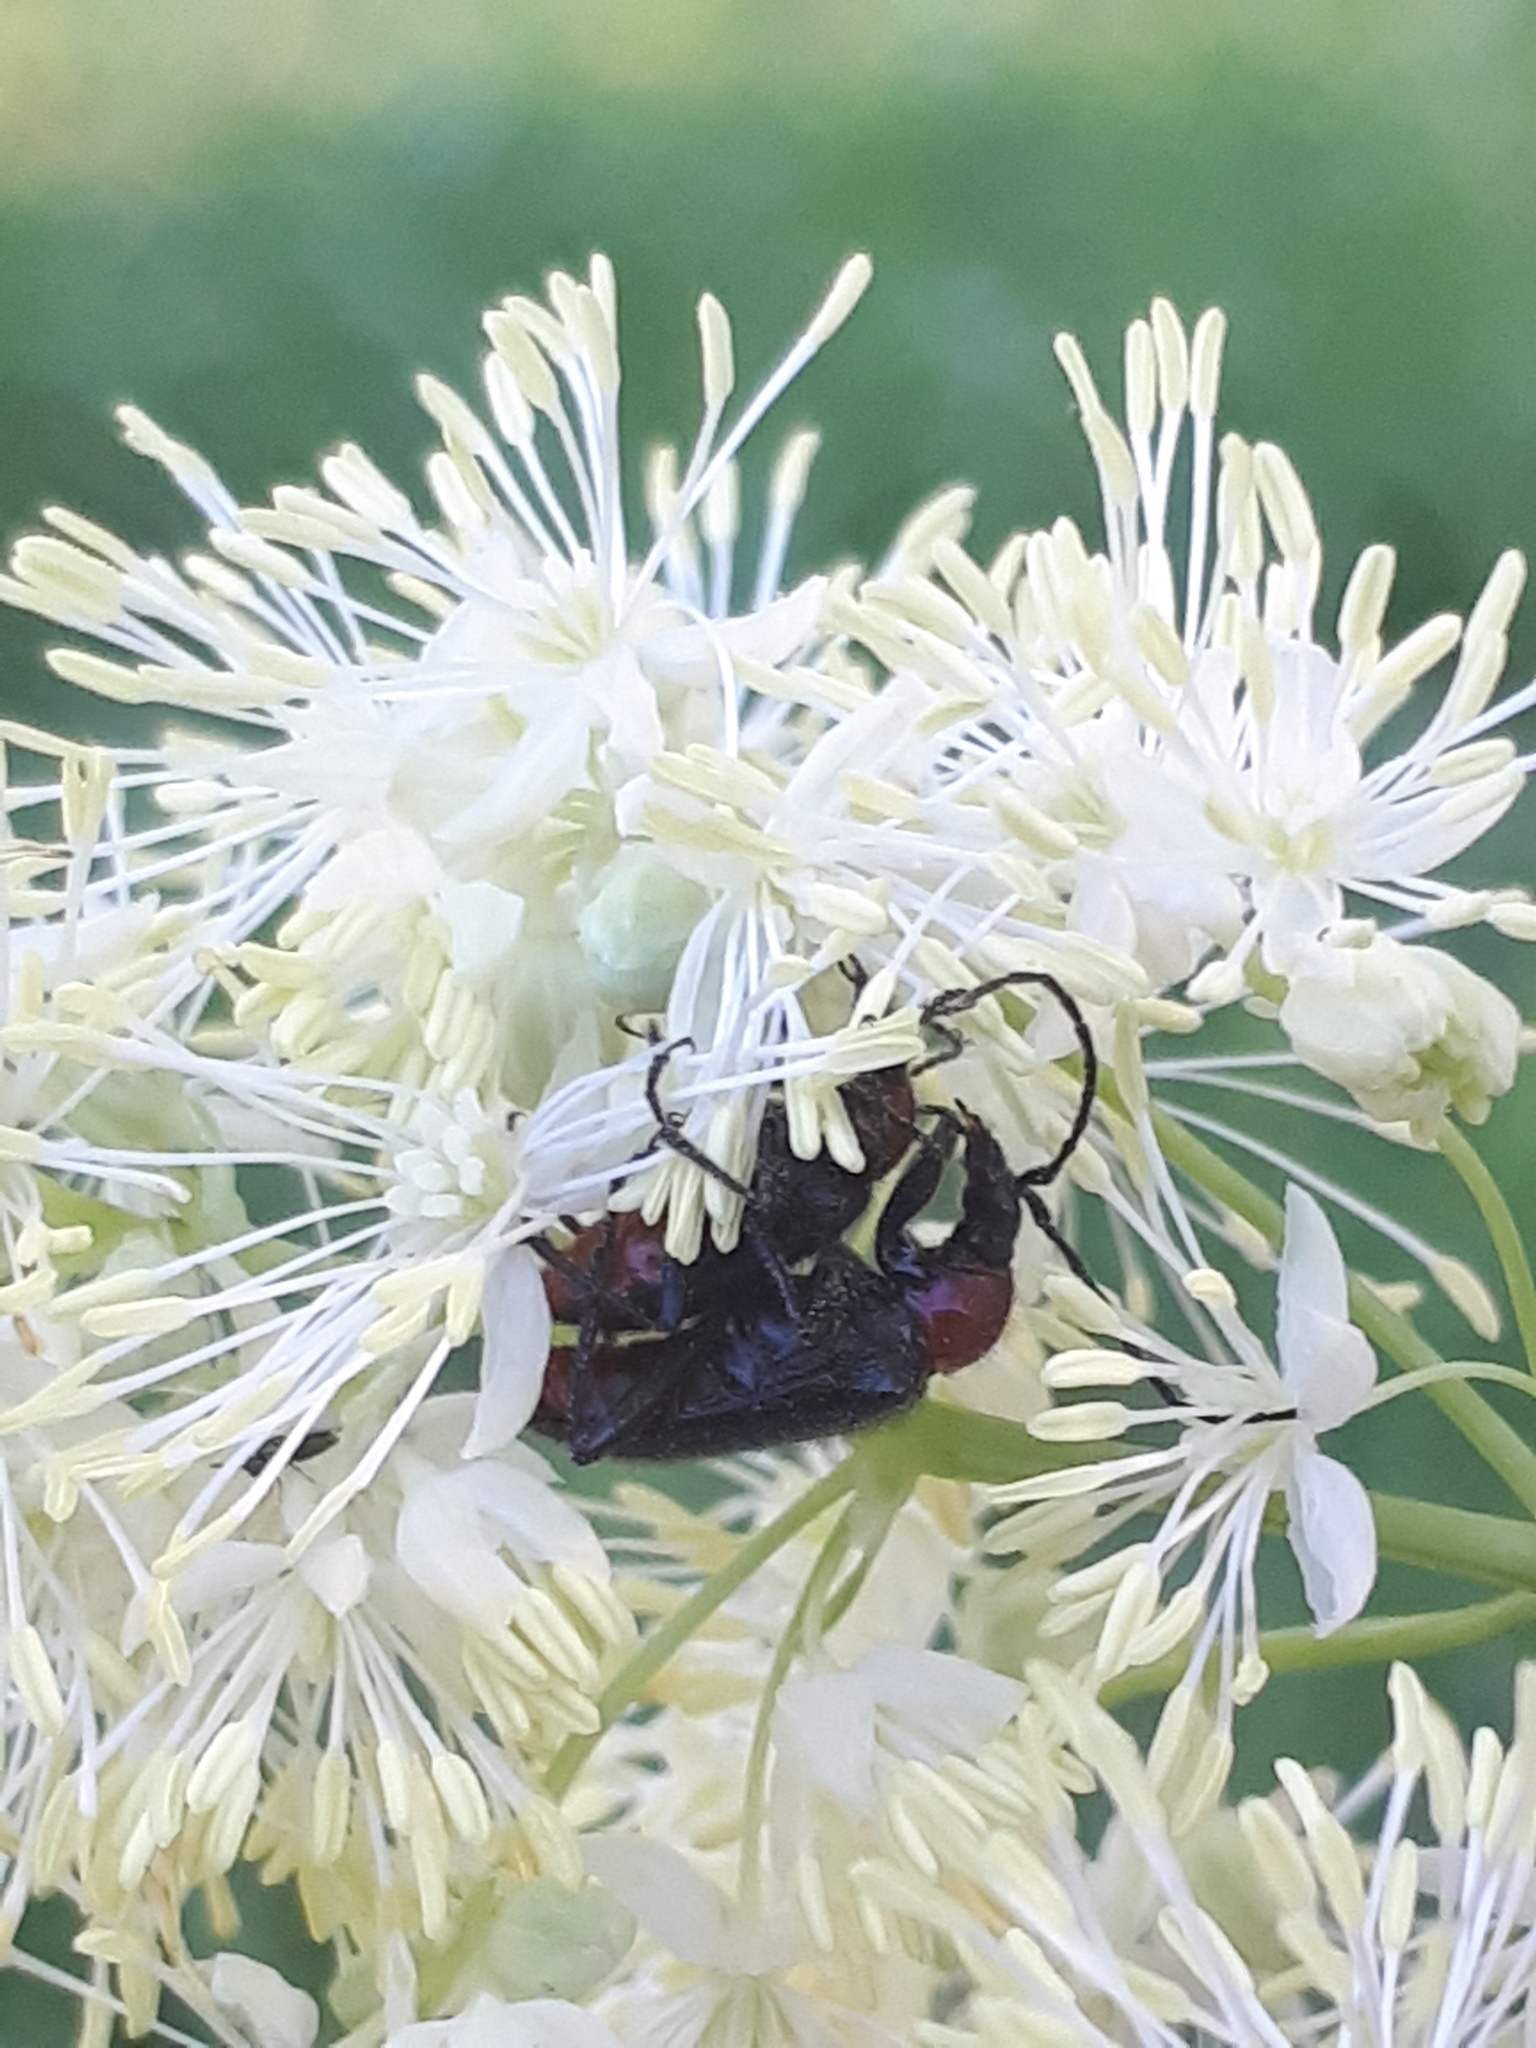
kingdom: Animalia
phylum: Arthropoda
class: Insecta
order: Coleoptera
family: Cerambycidae
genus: Dinoptera
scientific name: Dinoptera collaris
